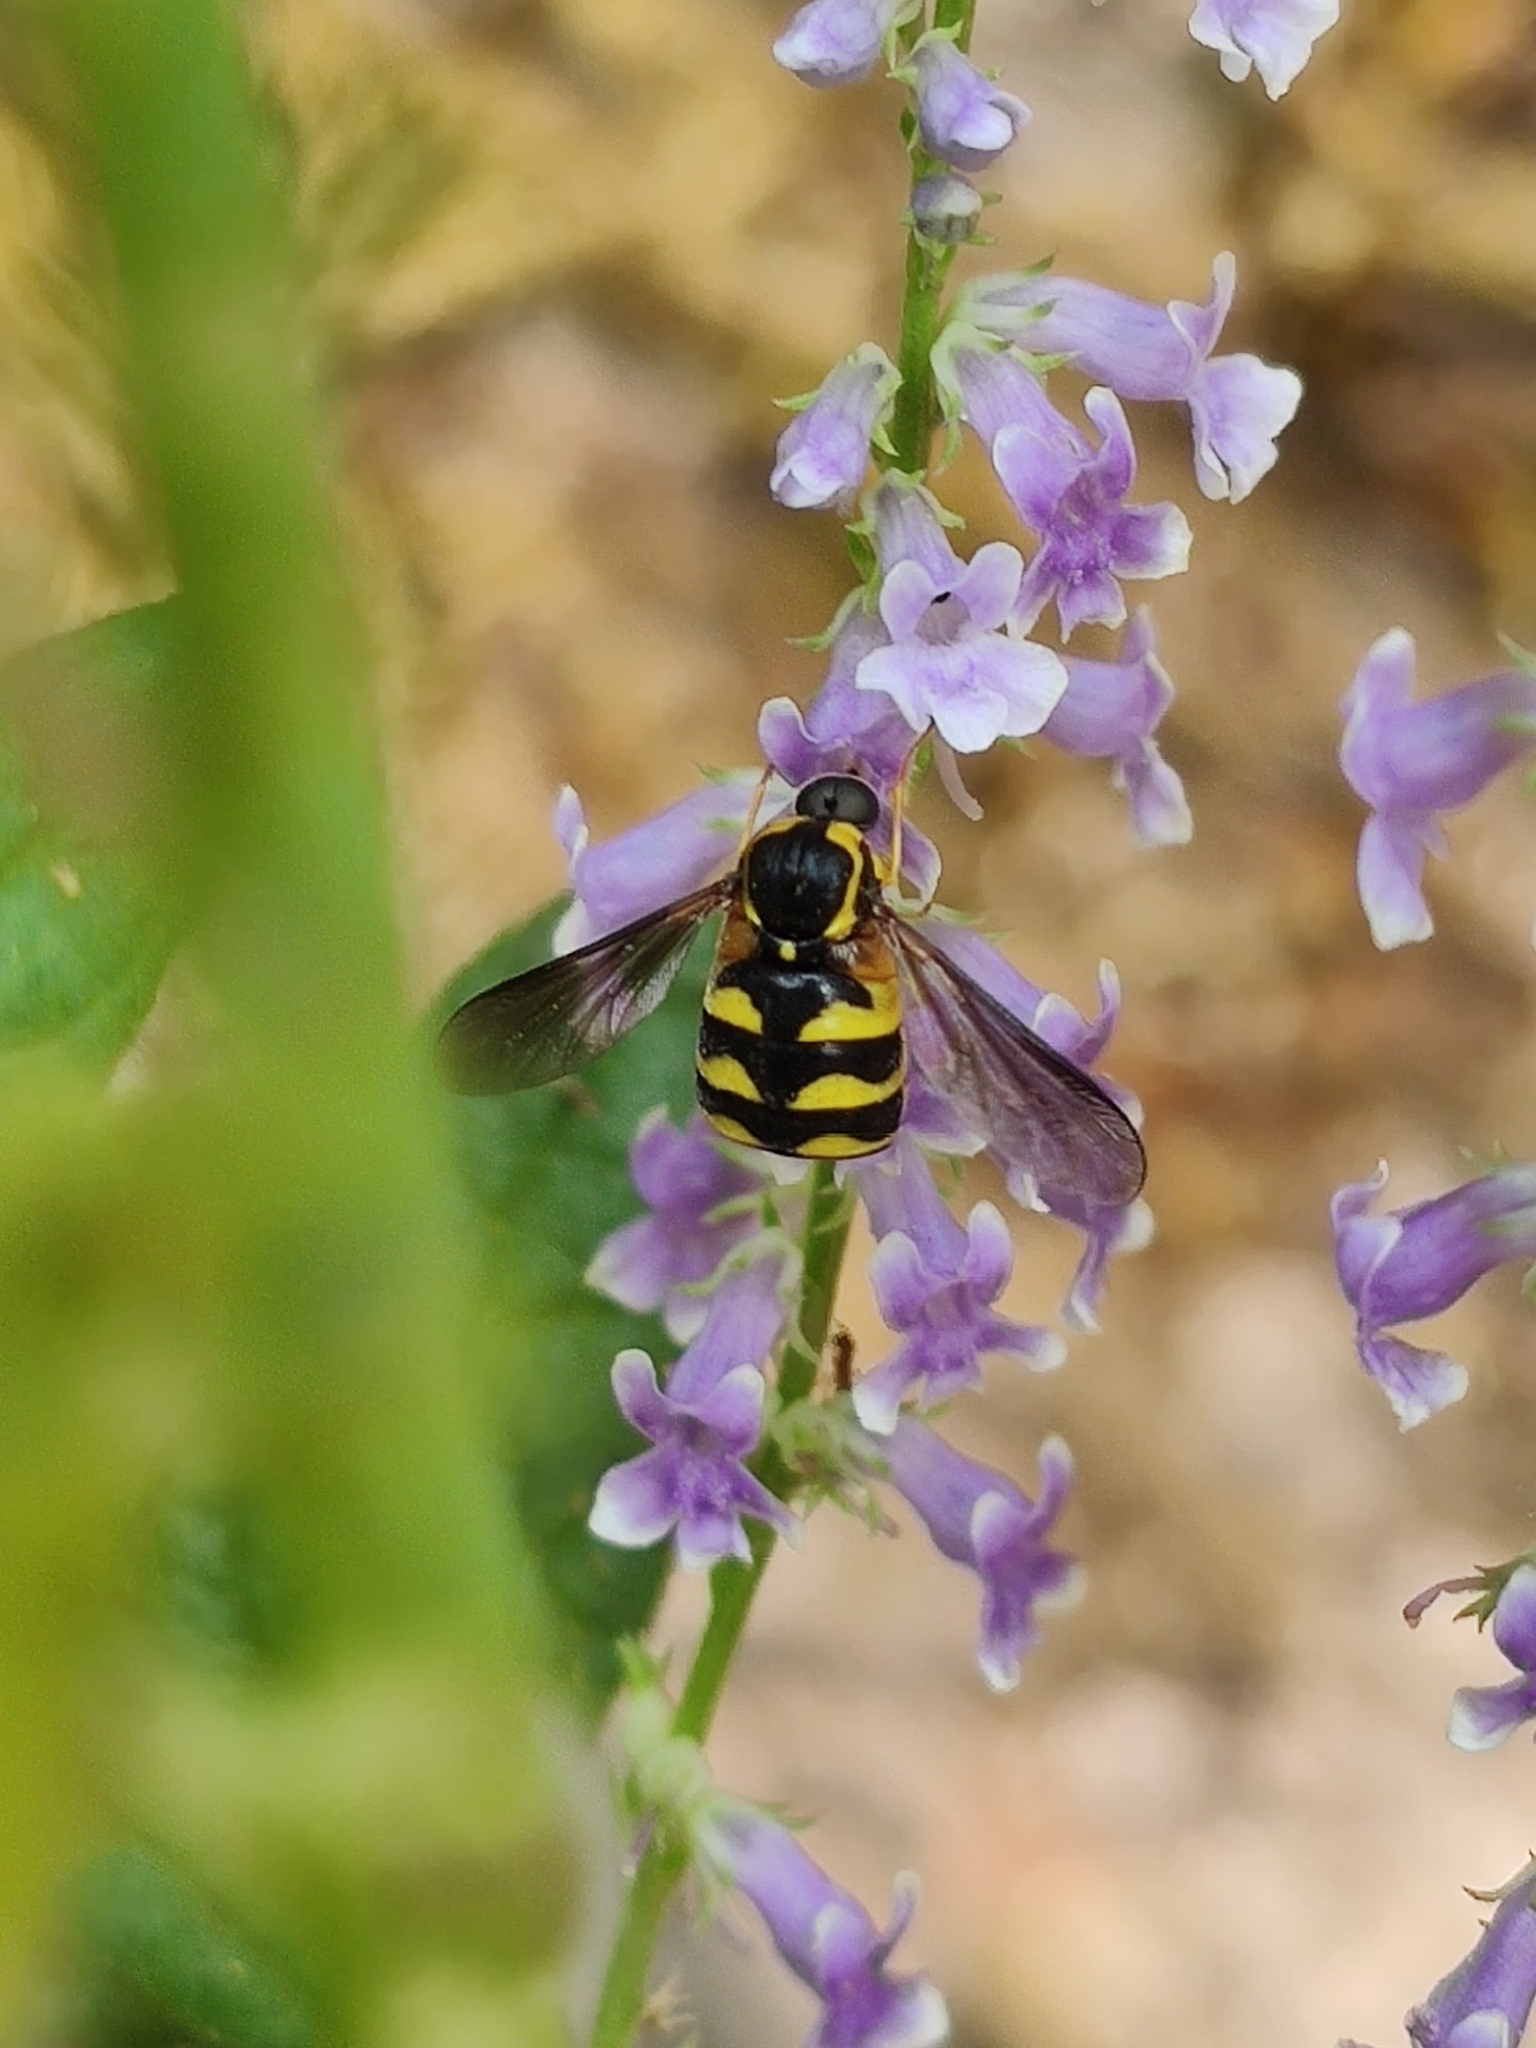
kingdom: Animalia
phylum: Arthropoda
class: Insecta
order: Diptera
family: Acroceridae
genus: Cyrtus
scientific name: Cyrtus gibbus
